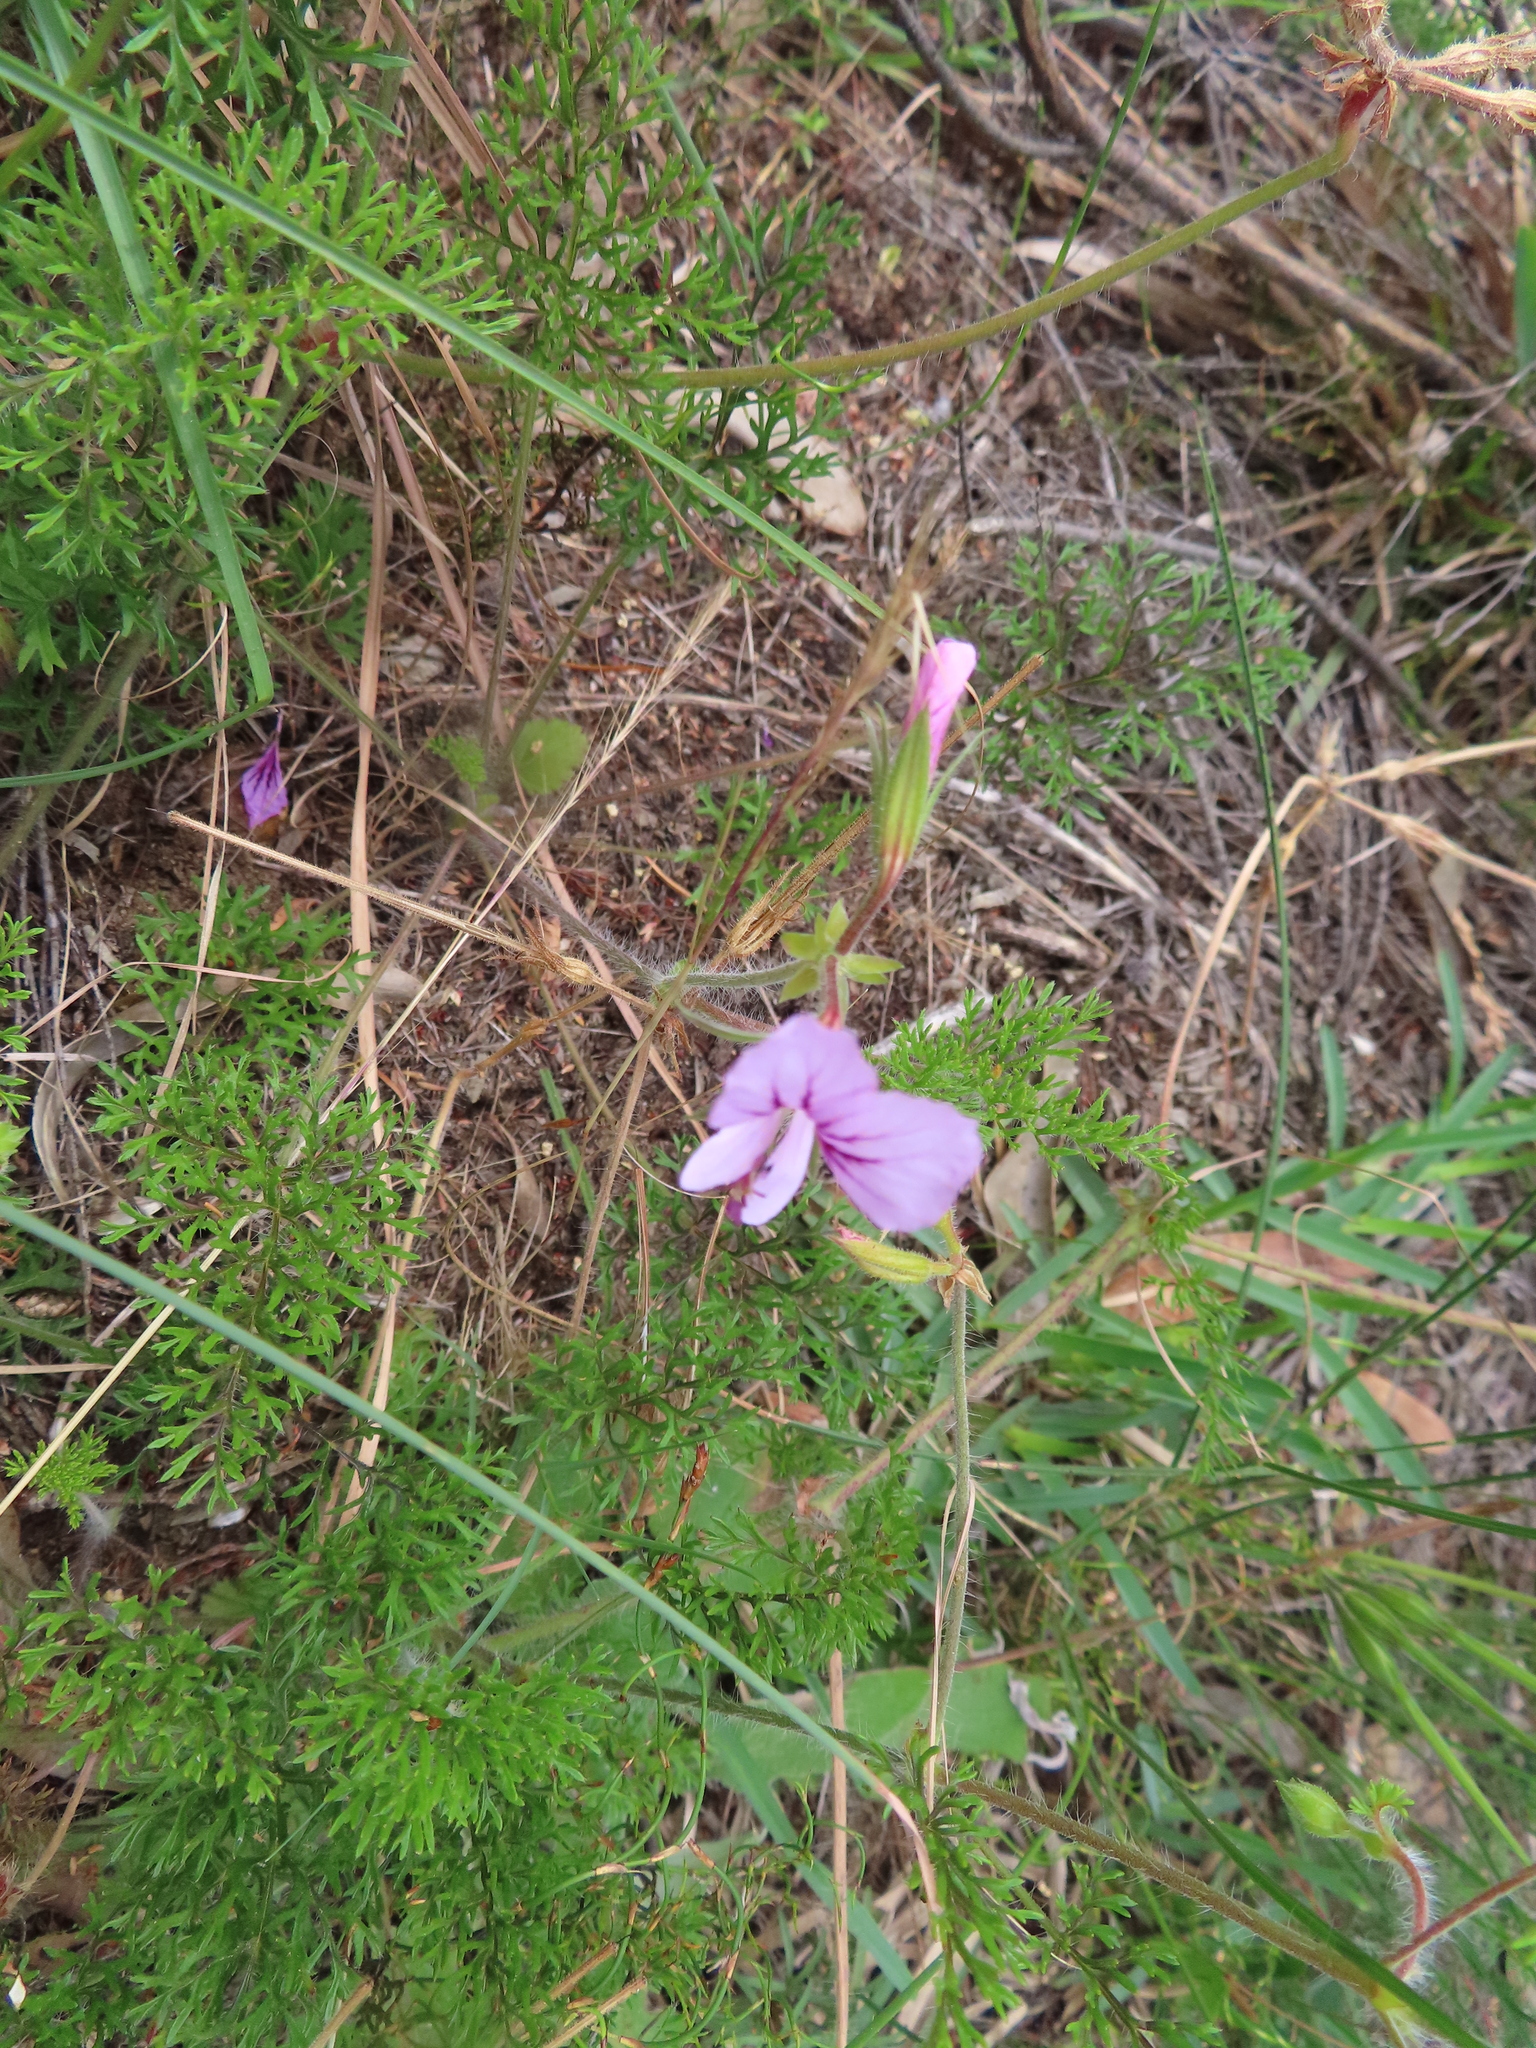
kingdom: Plantae
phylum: Tracheophyta
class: Magnoliopsida
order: Geraniales
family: Geraniaceae
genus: Pelargonium
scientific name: Pelargonium myrrhifolium
